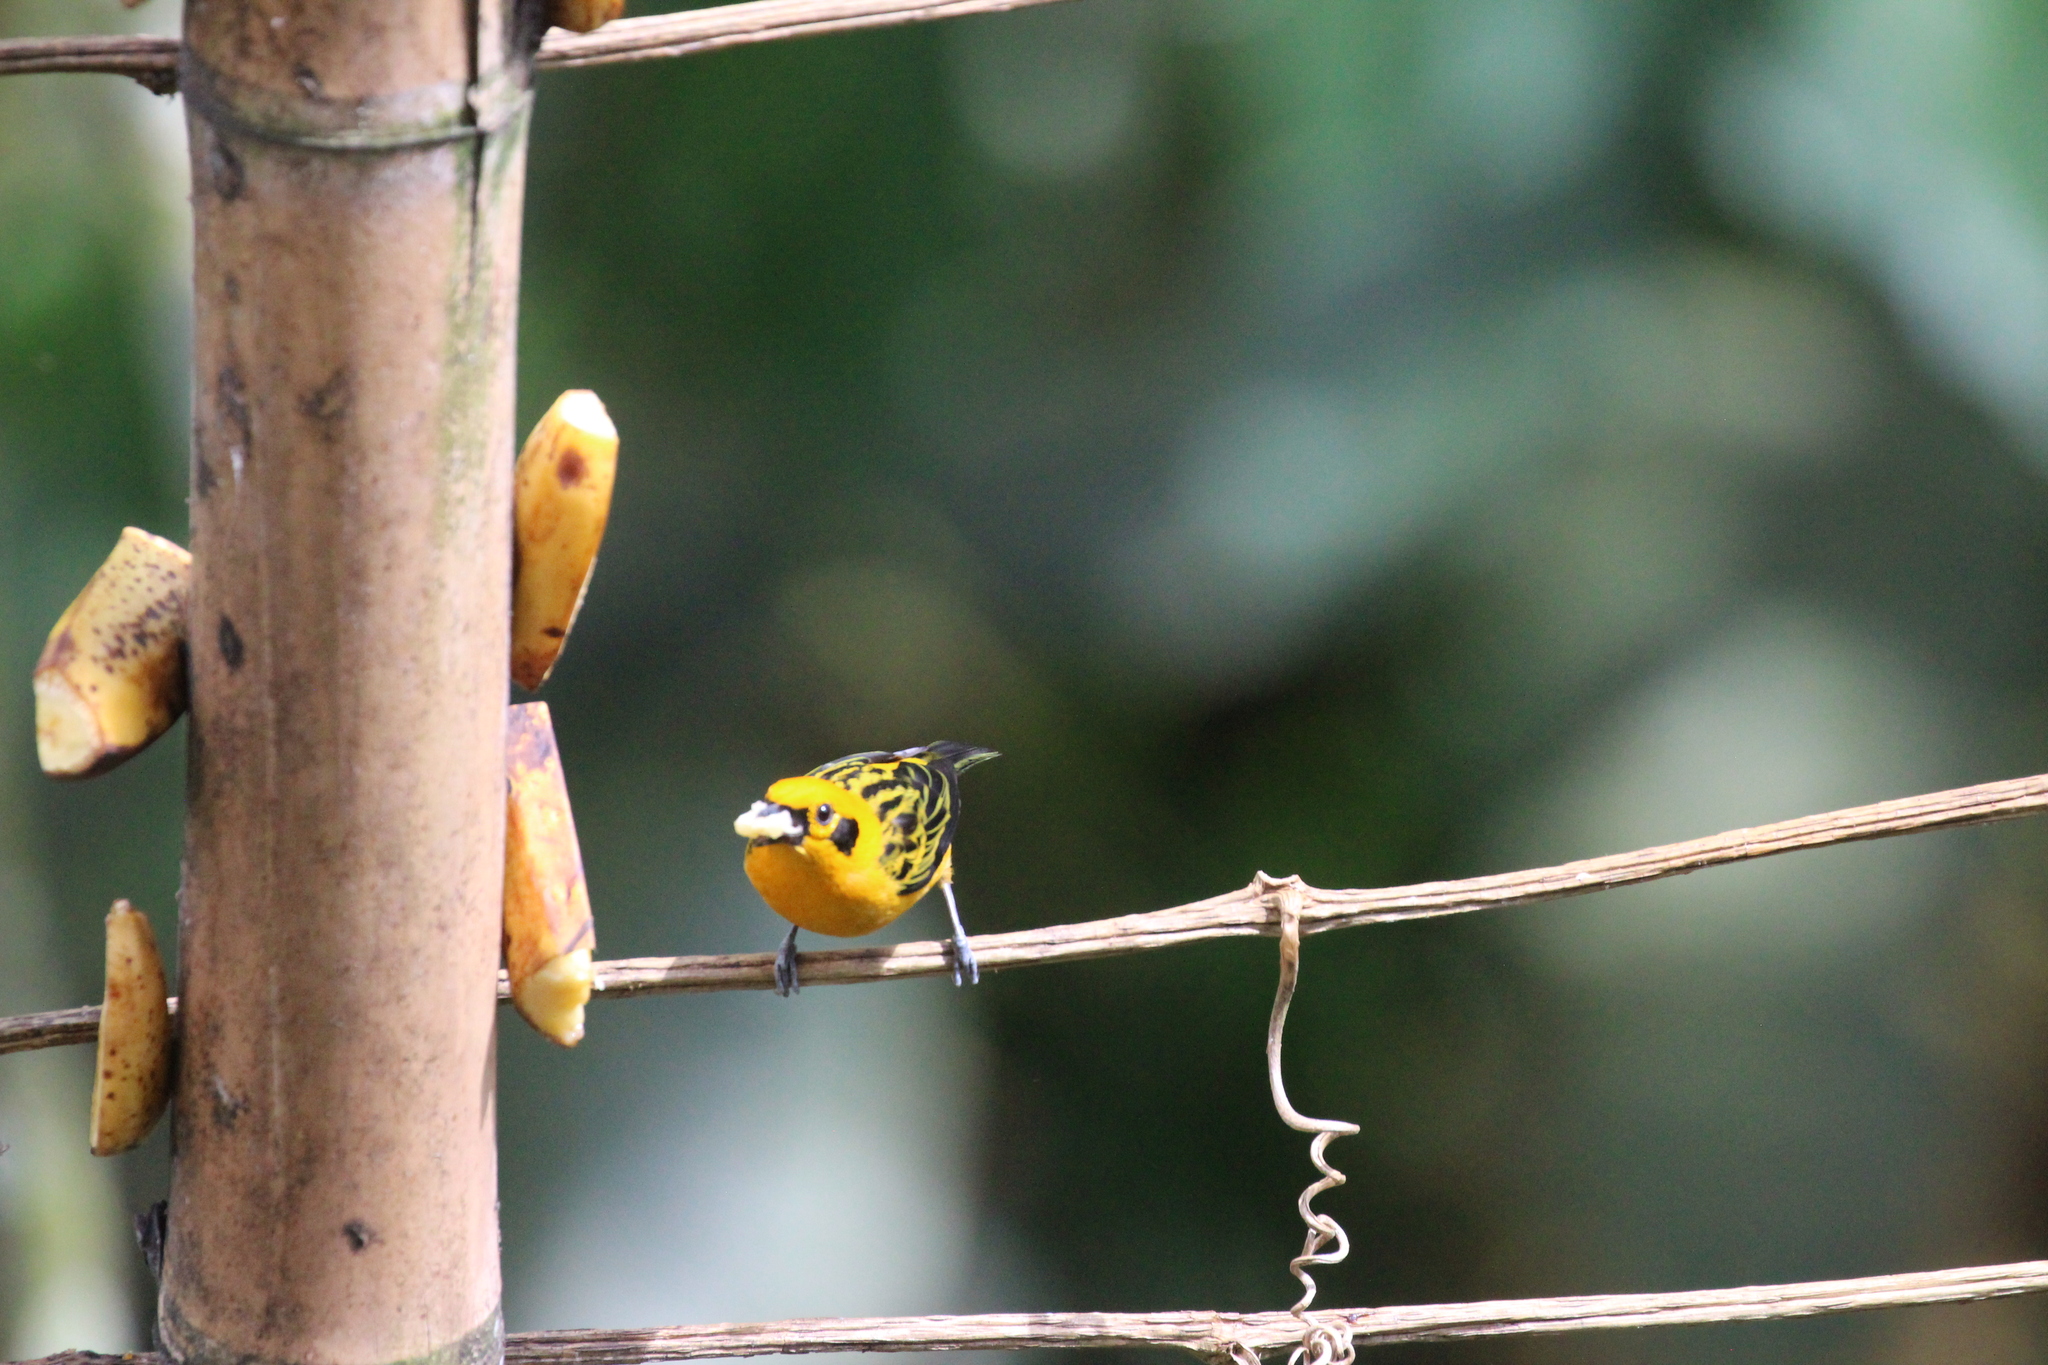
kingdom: Animalia
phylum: Chordata
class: Aves
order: Passeriformes
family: Thraupidae
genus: Tangara
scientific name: Tangara arthus
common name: Golden tanager
